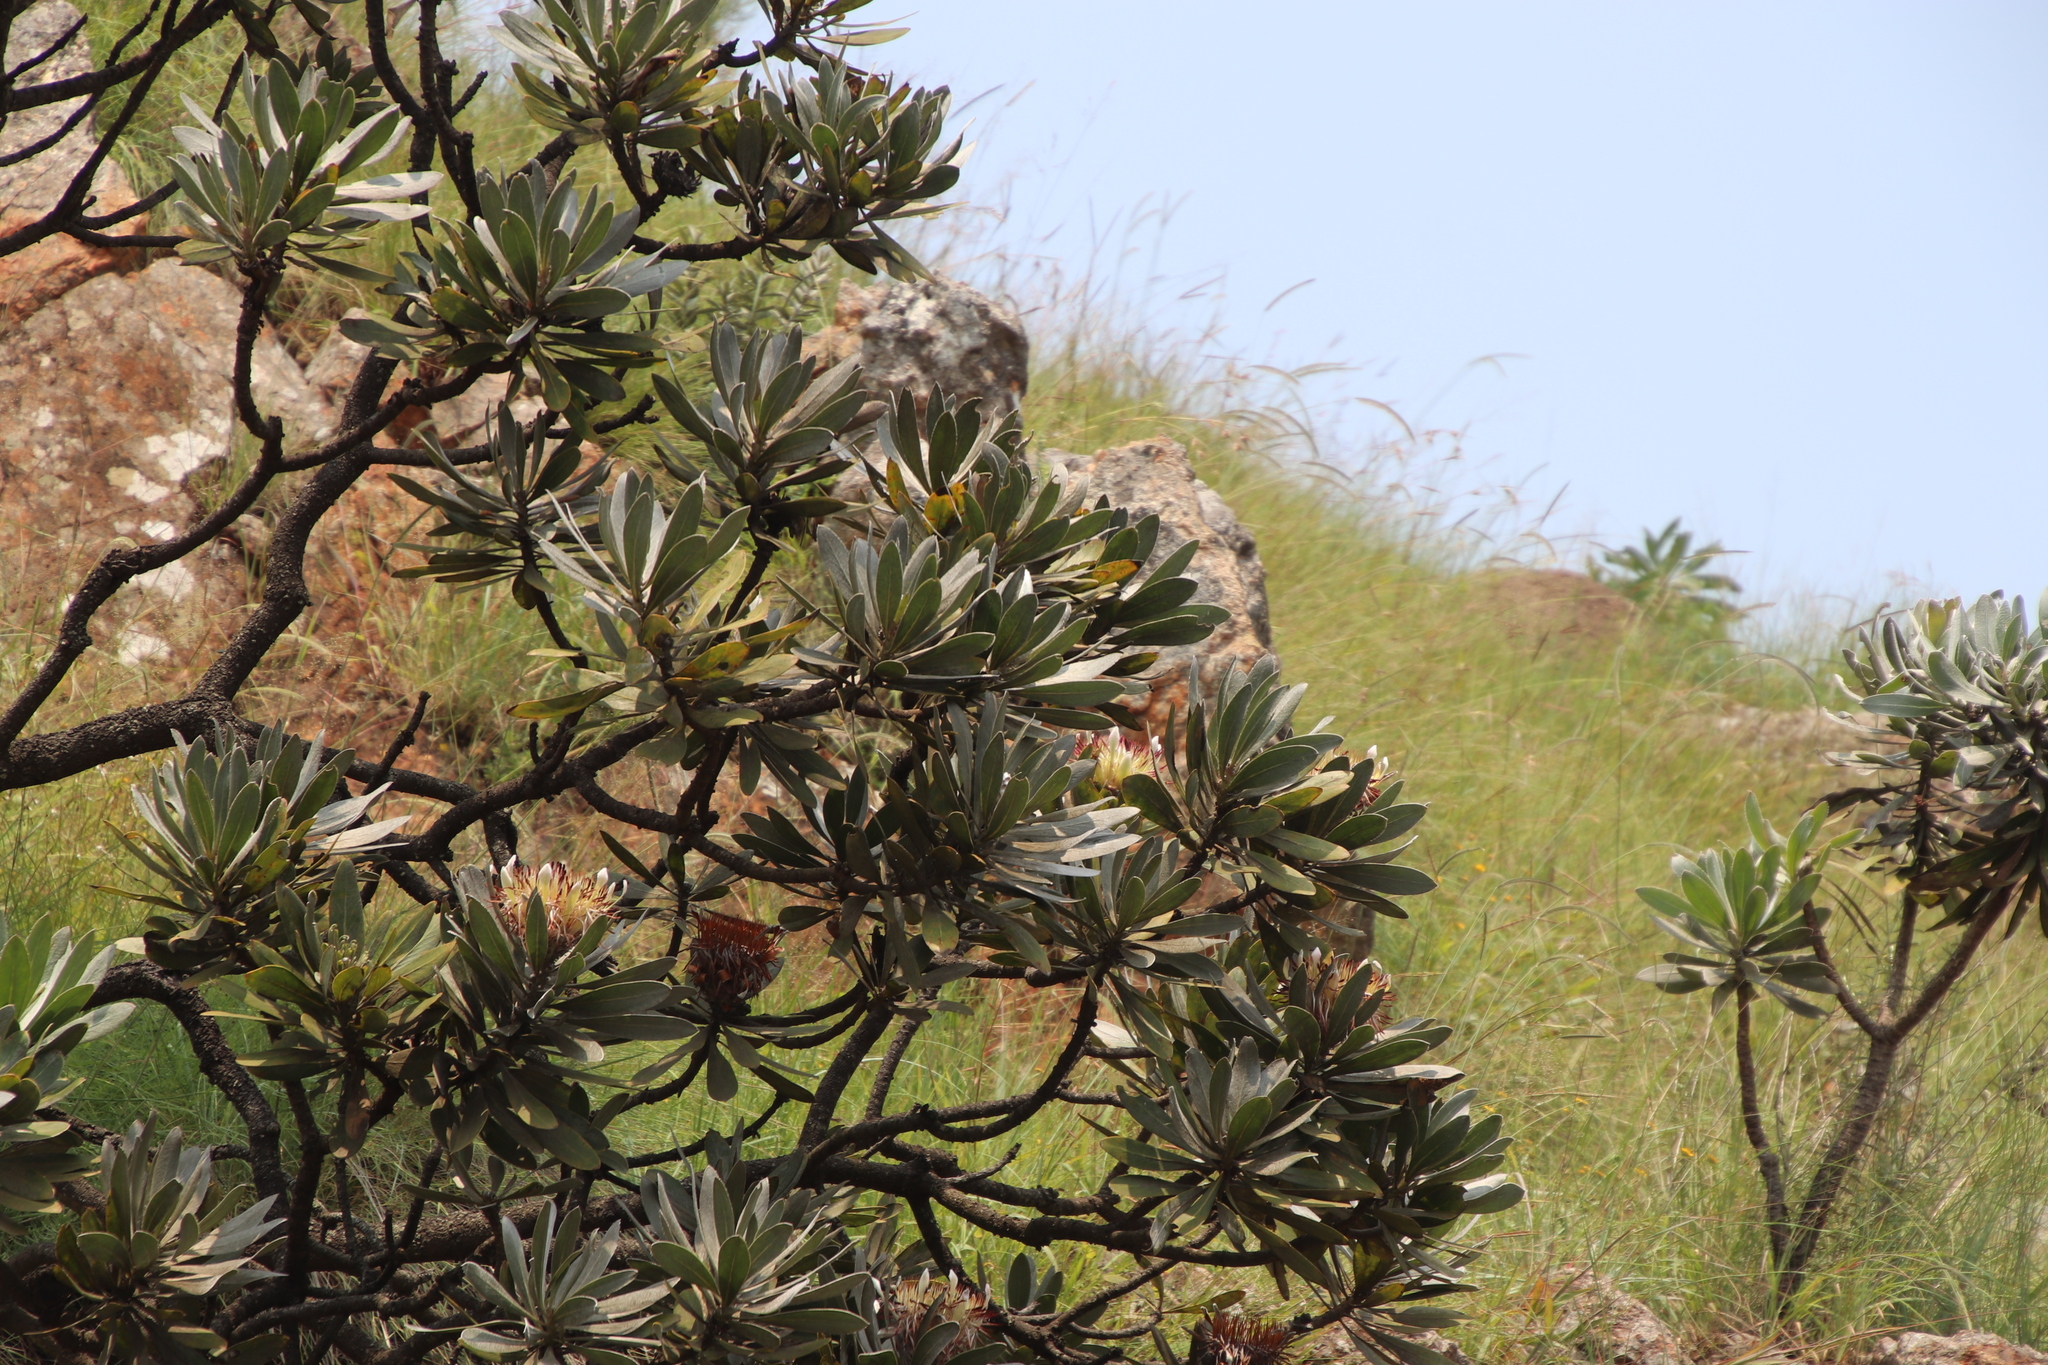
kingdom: Plantae
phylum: Tracheophyta
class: Magnoliopsida
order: Proteales
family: Proteaceae
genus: Protea
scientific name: Protea roupelliae
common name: Silver sugarbush
